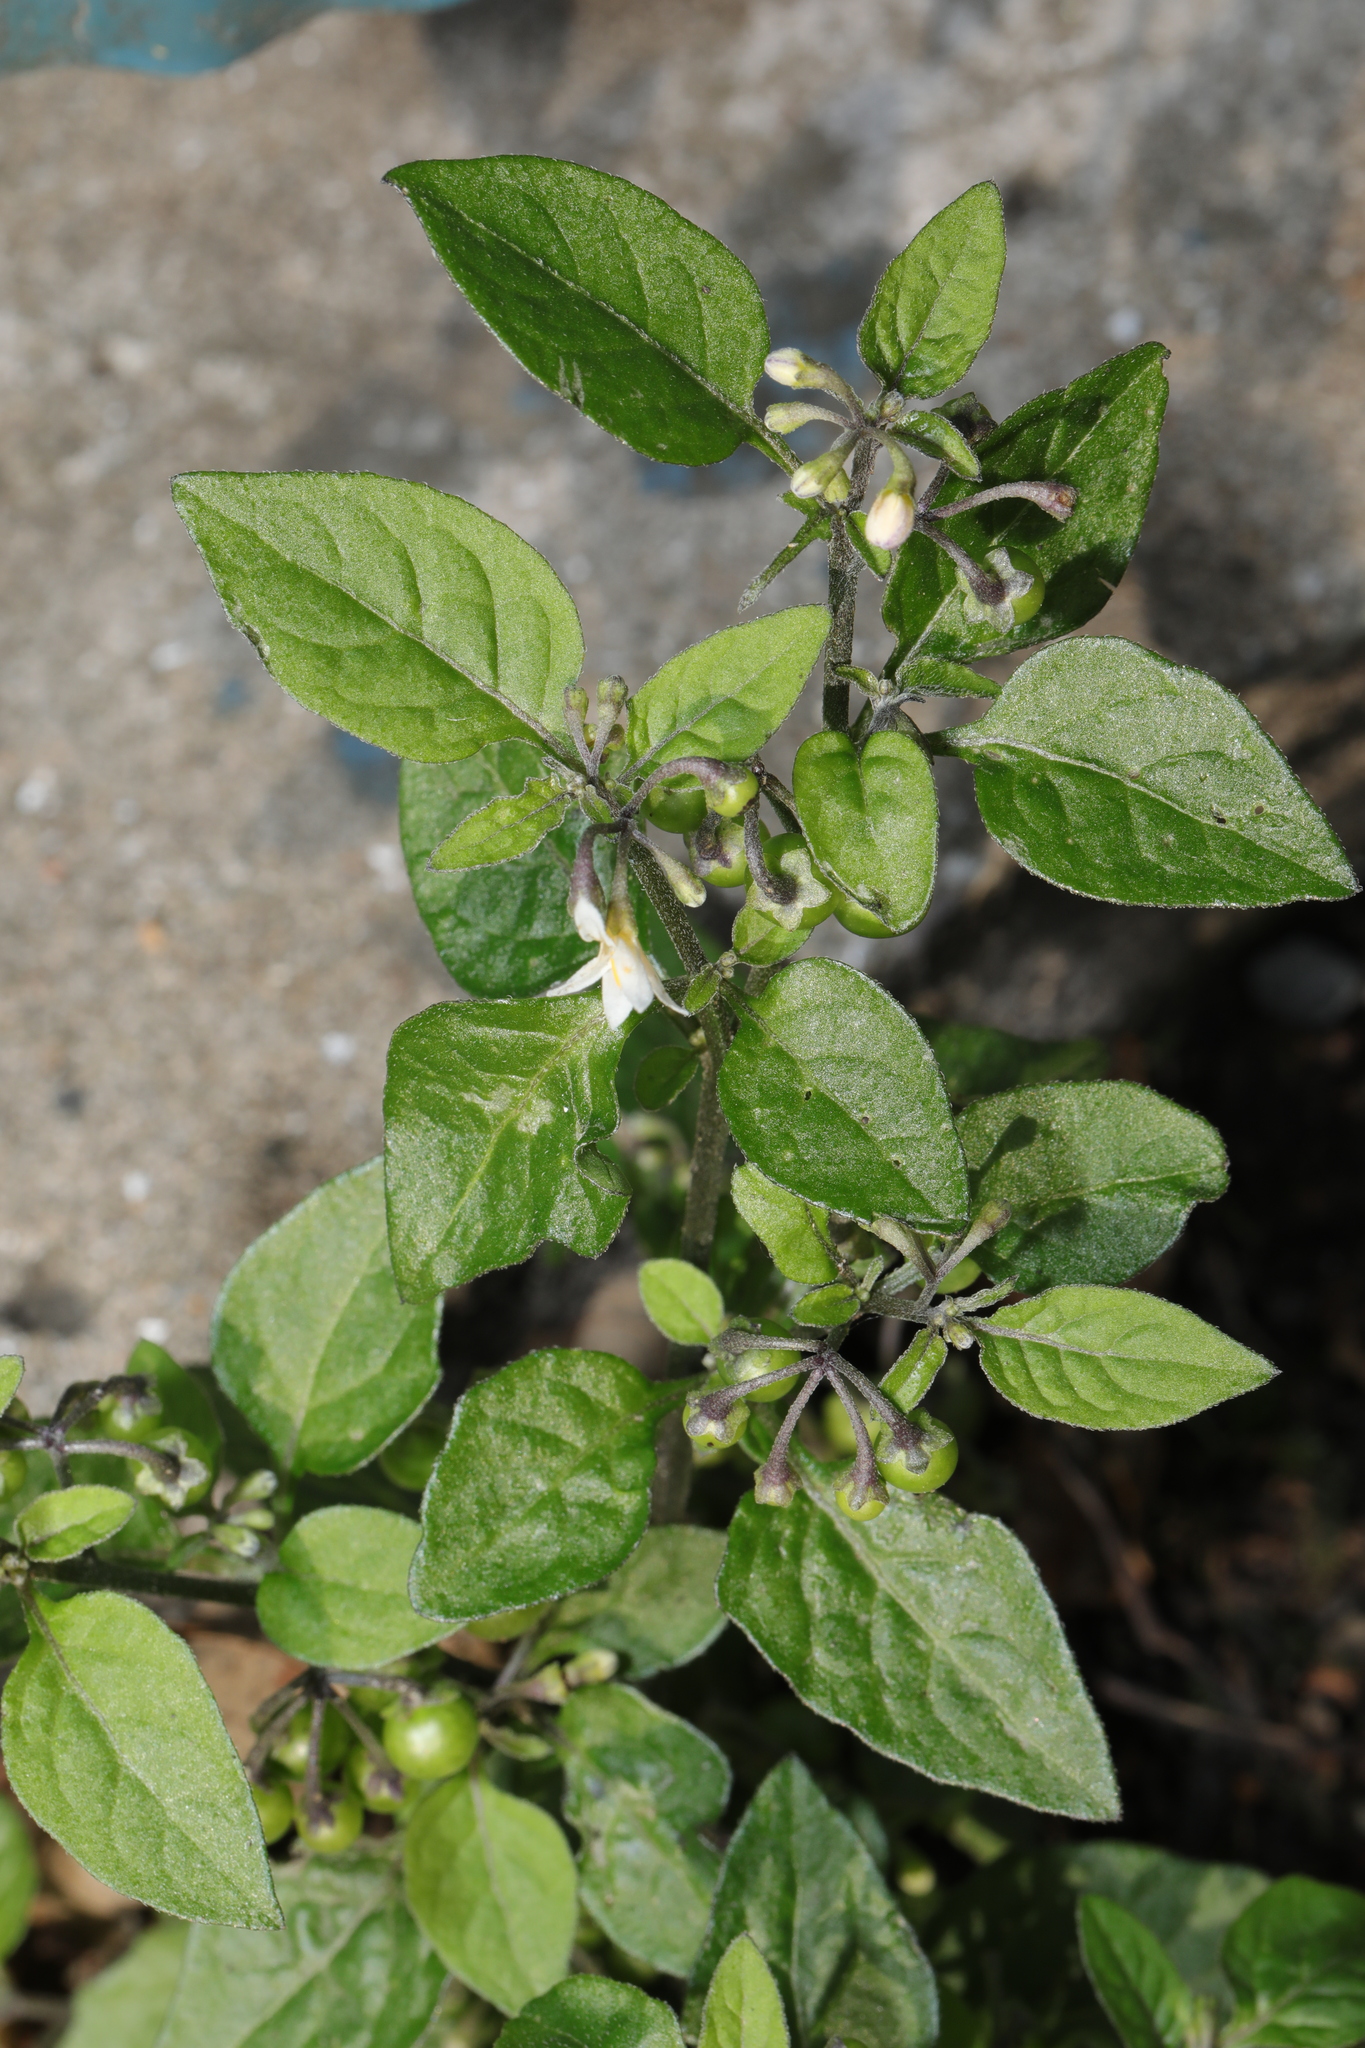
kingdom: Plantae
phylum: Tracheophyta
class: Magnoliopsida
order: Solanales
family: Solanaceae
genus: Solanum
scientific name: Solanum nigrum
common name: Black nightshade
